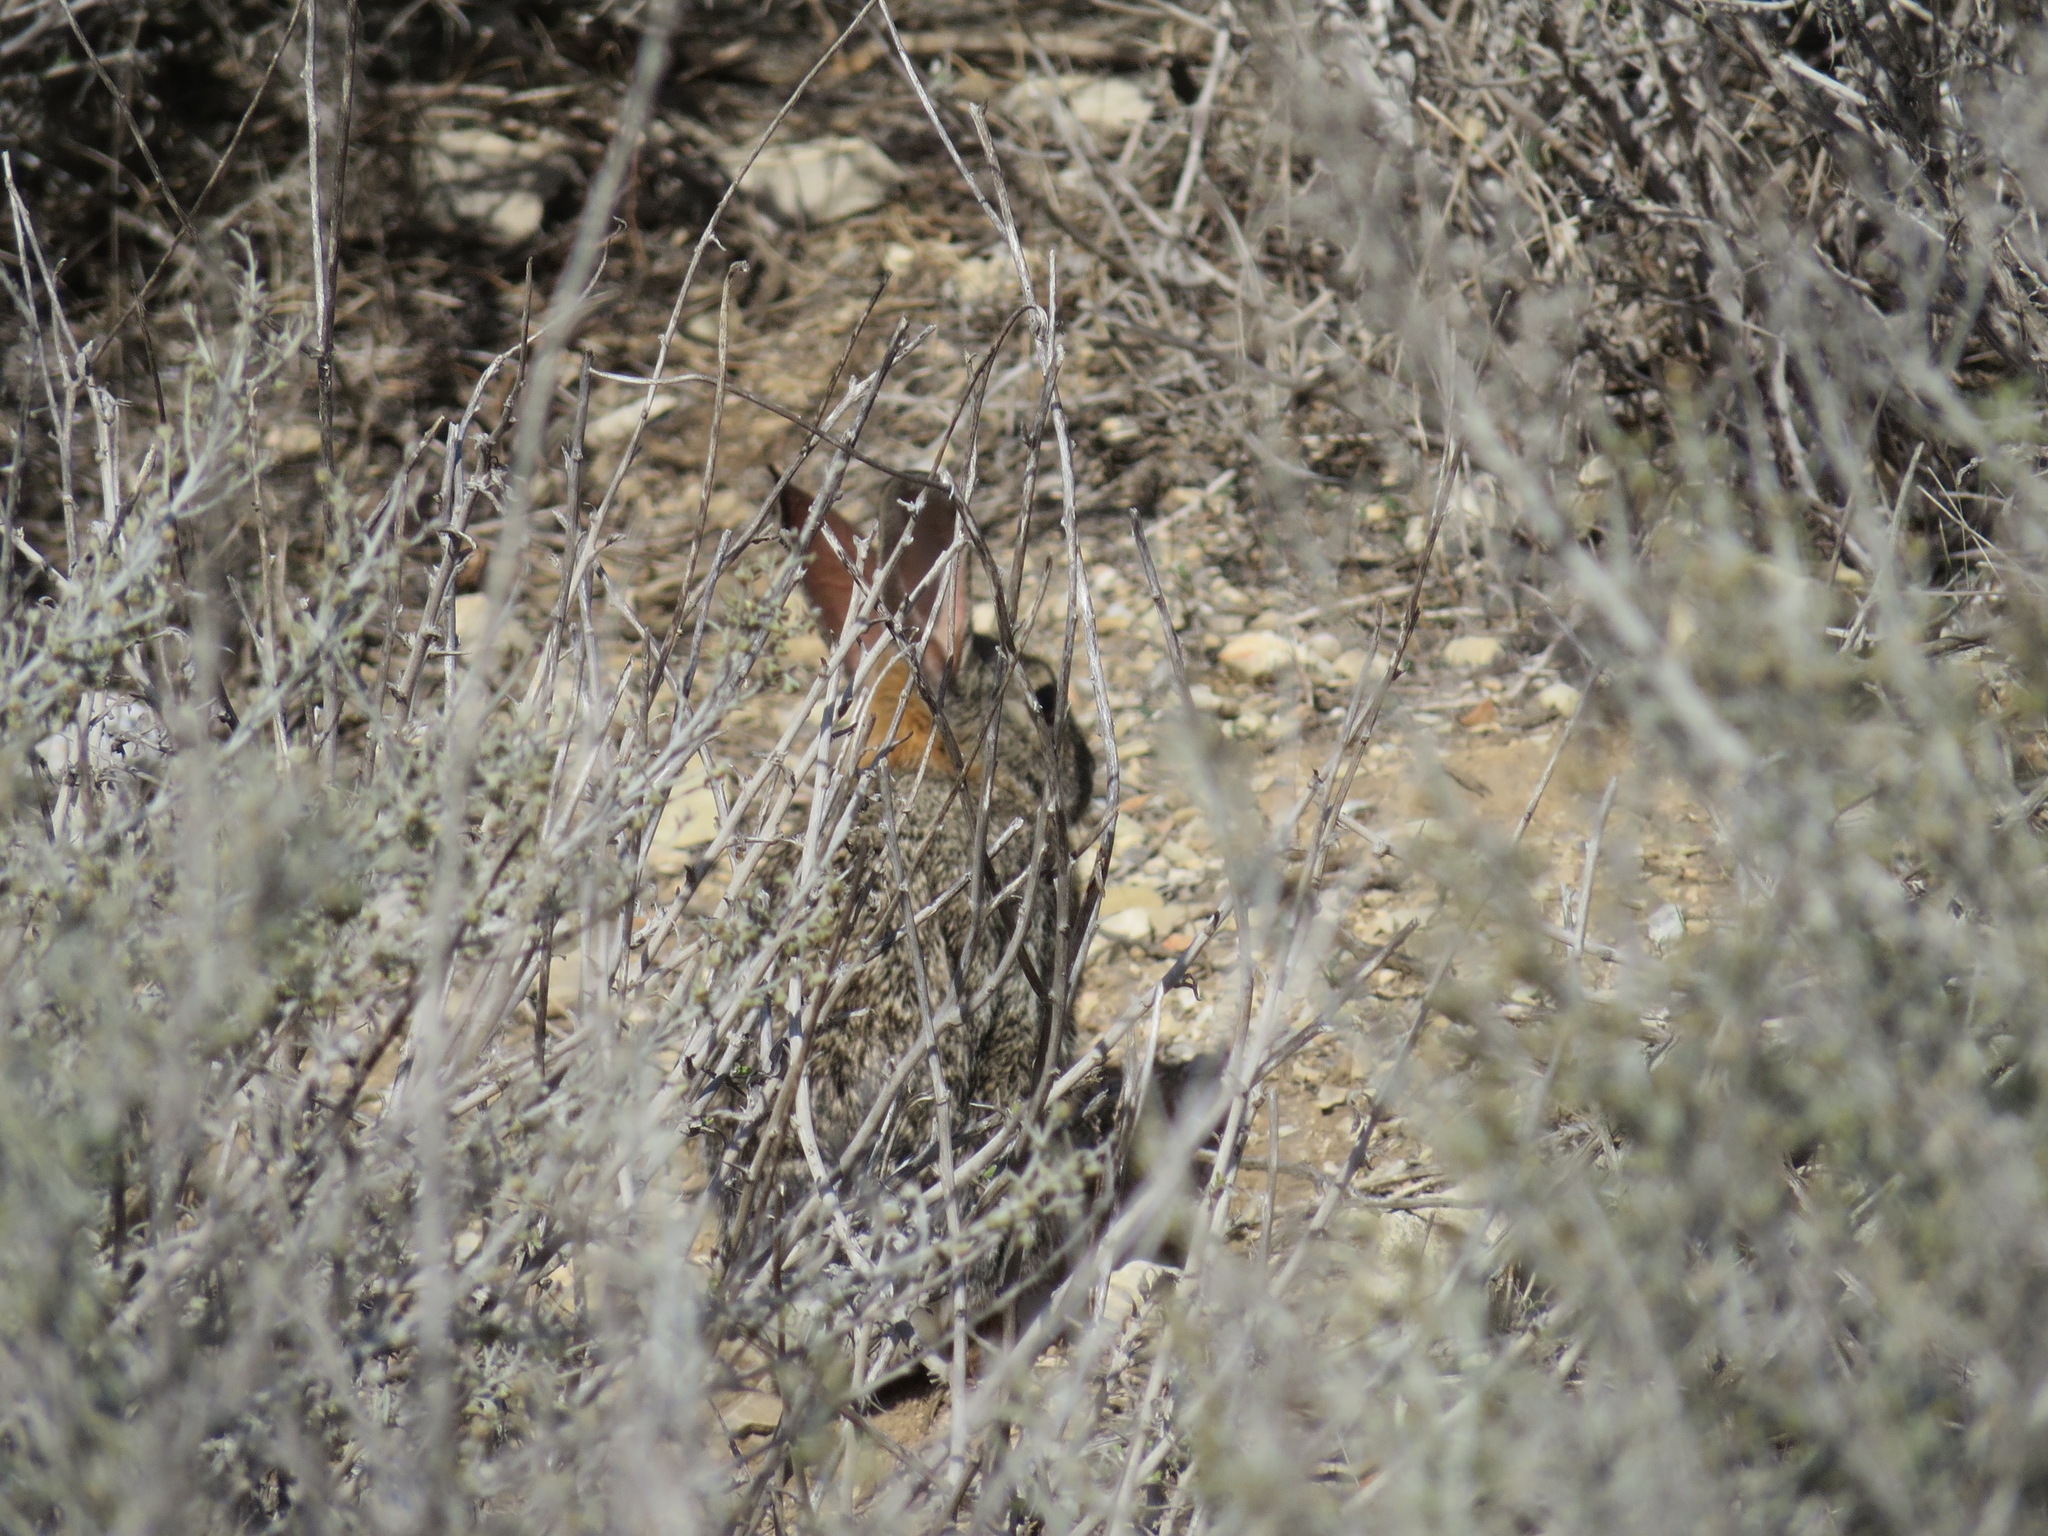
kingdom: Animalia
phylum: Chordata
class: Mammalia
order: Lagomorpha
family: Leporidae
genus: Sylvilagus
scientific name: Sylvilagus audubonii
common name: Desert cottontail
